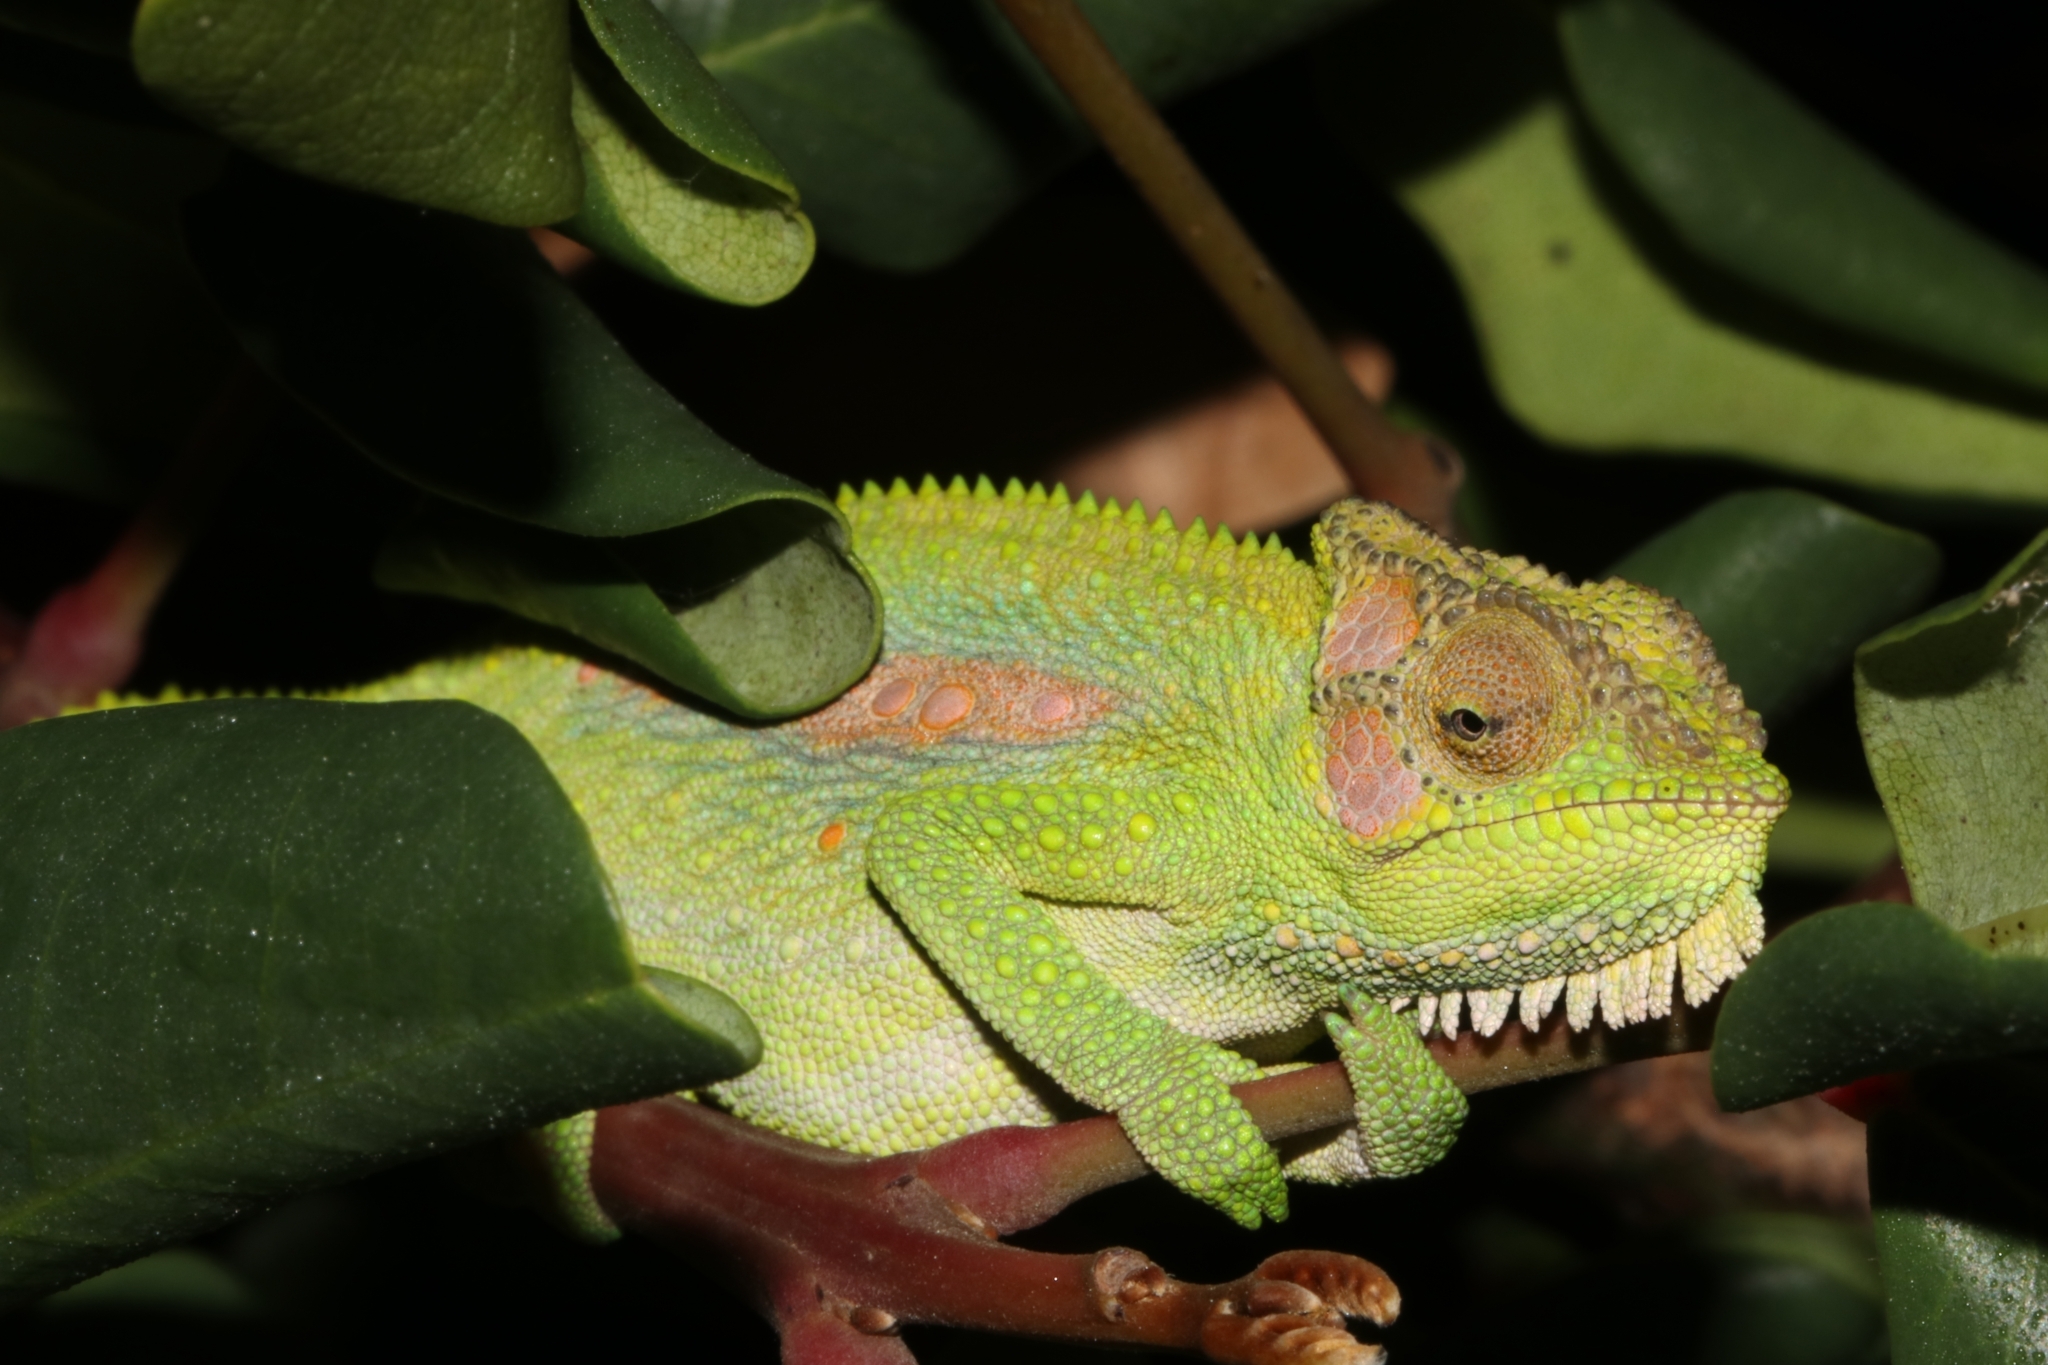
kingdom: Animalia
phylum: Chordata
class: Squamata
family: Chamaeleonidae
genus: Bradypodion
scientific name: Bradypodion pumilum
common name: Cape dwarf chameleon
